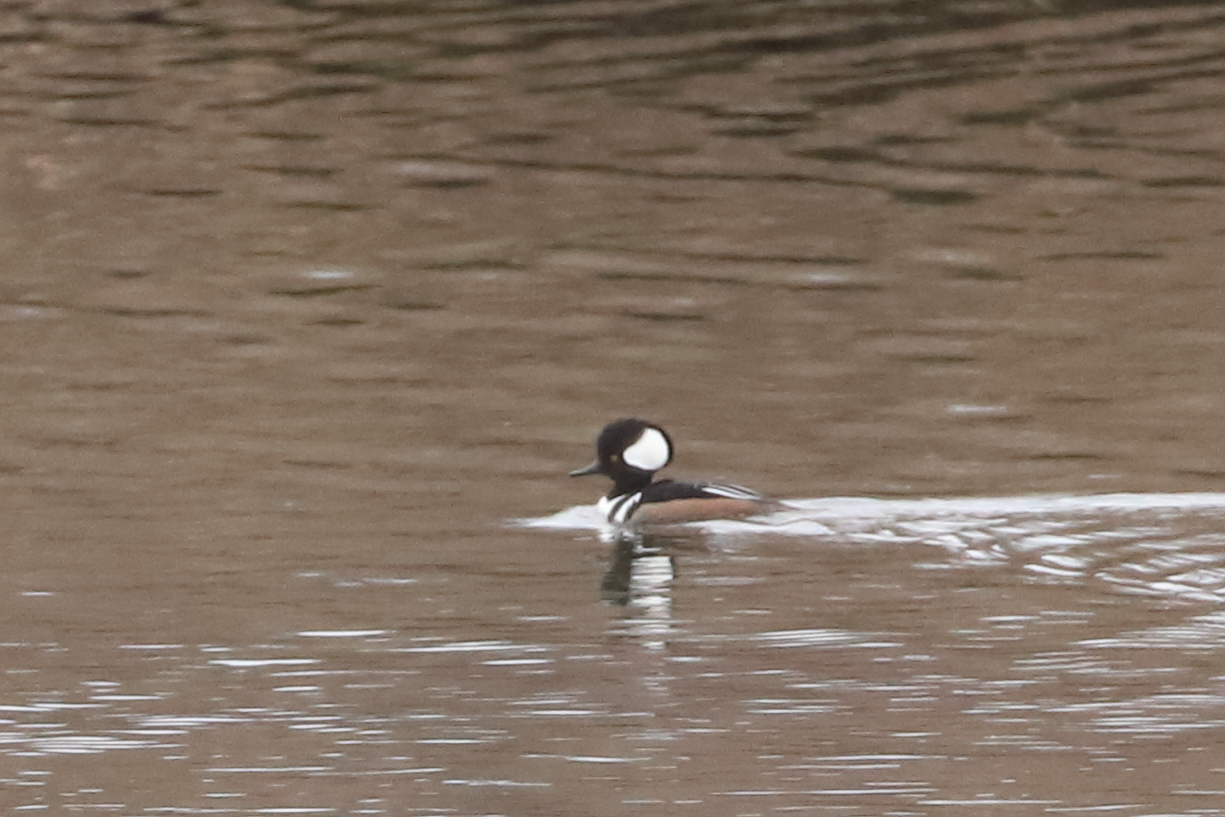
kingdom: Animalia
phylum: Chordata
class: Aves
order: Anseriformes
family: Anatidae
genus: Lophodytes
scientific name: Lophodytes cucullatus
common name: Hooded merganser
